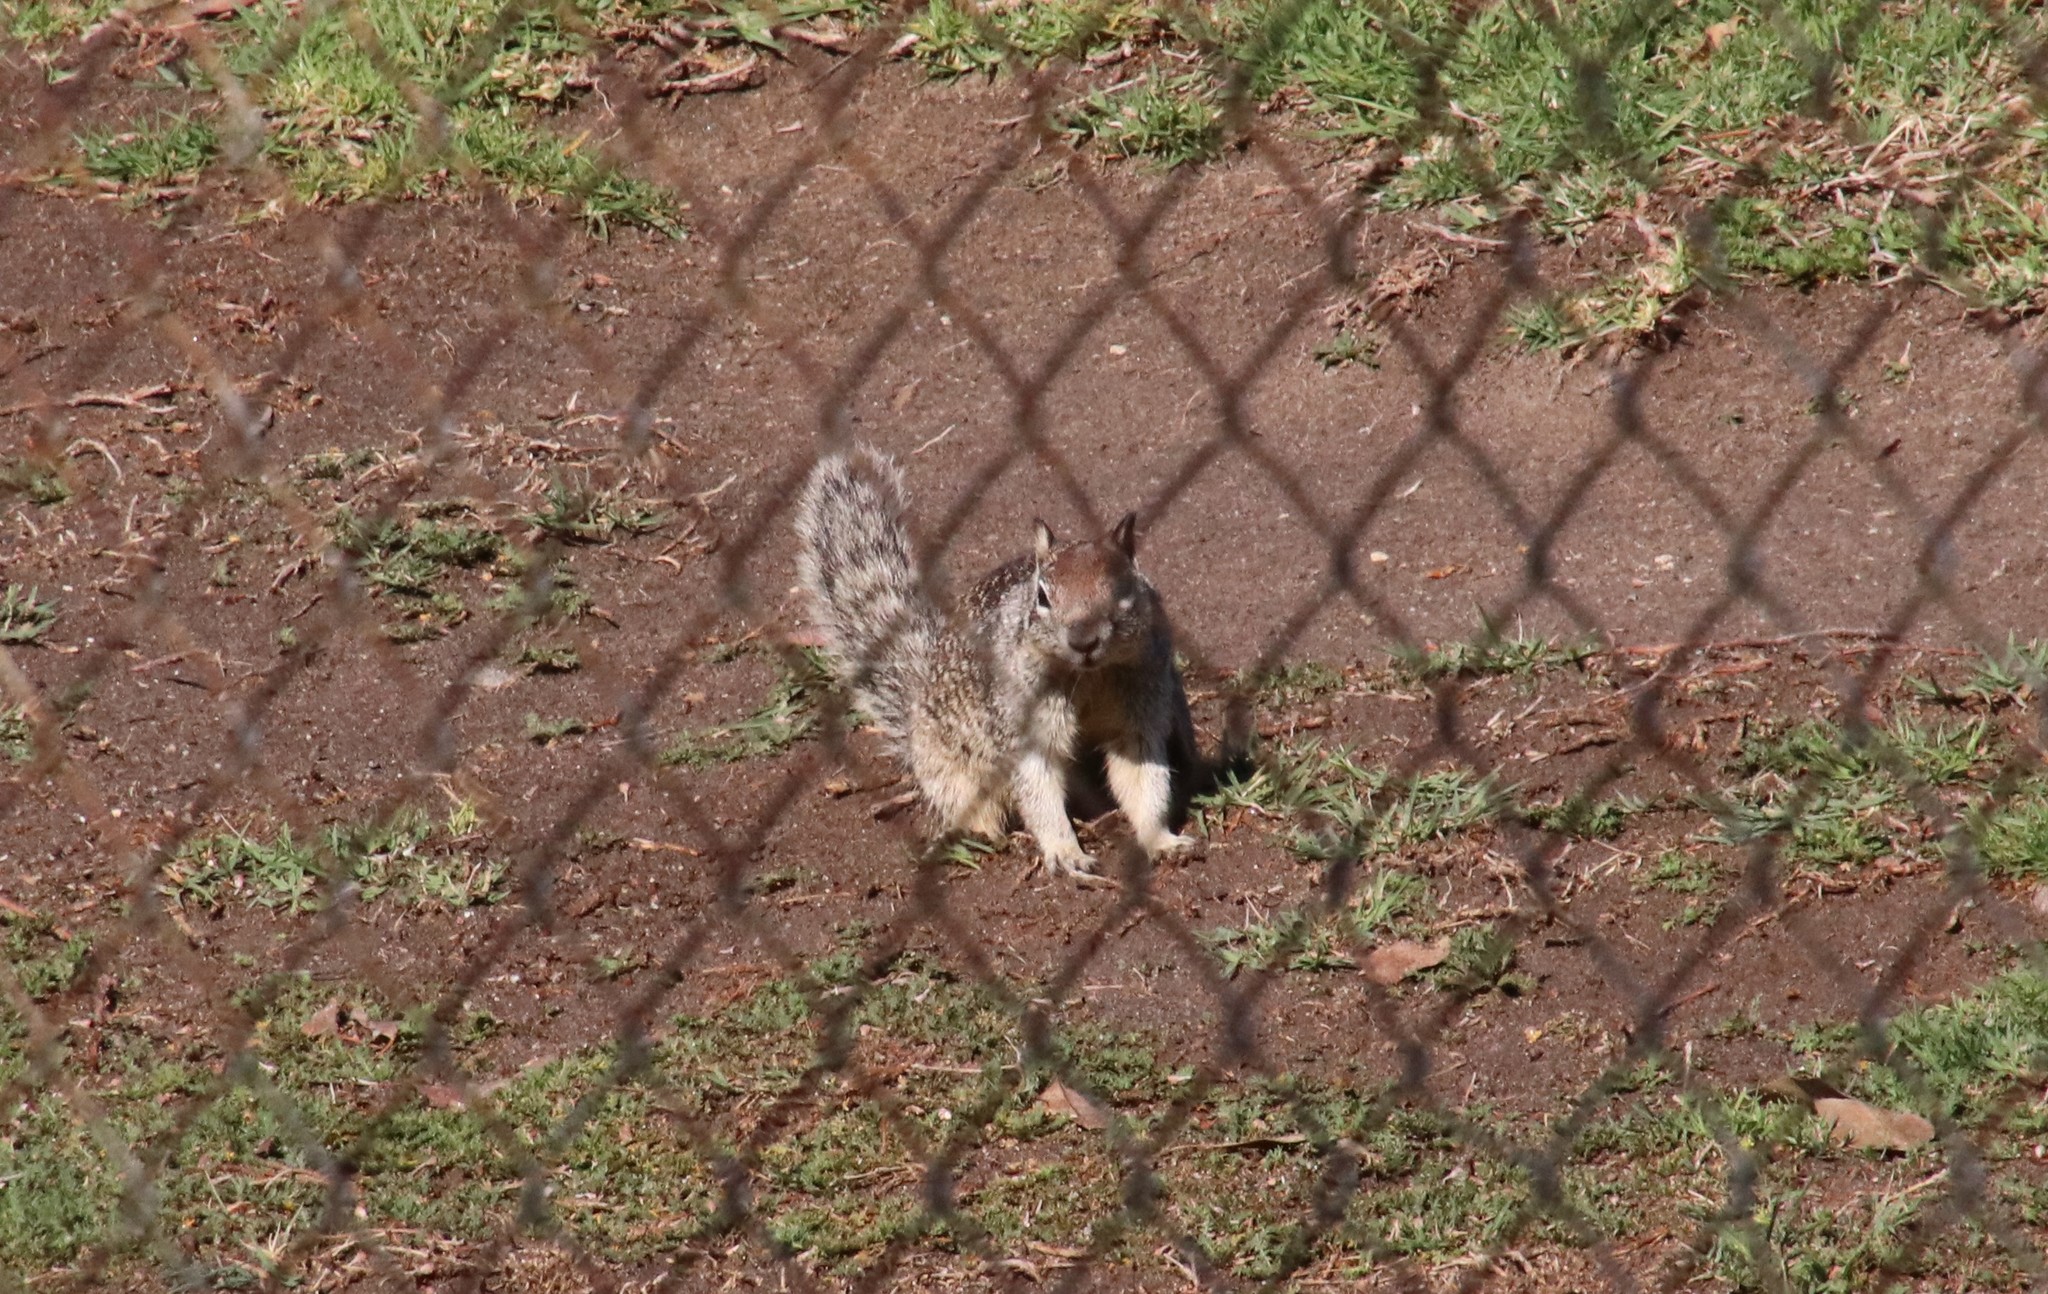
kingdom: Animalia
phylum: Chordata
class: Mammalia
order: Rodentia
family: Sciuridae
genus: Otospermophilus
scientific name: Otospermophilus beecheyi
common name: California ground squirrel
